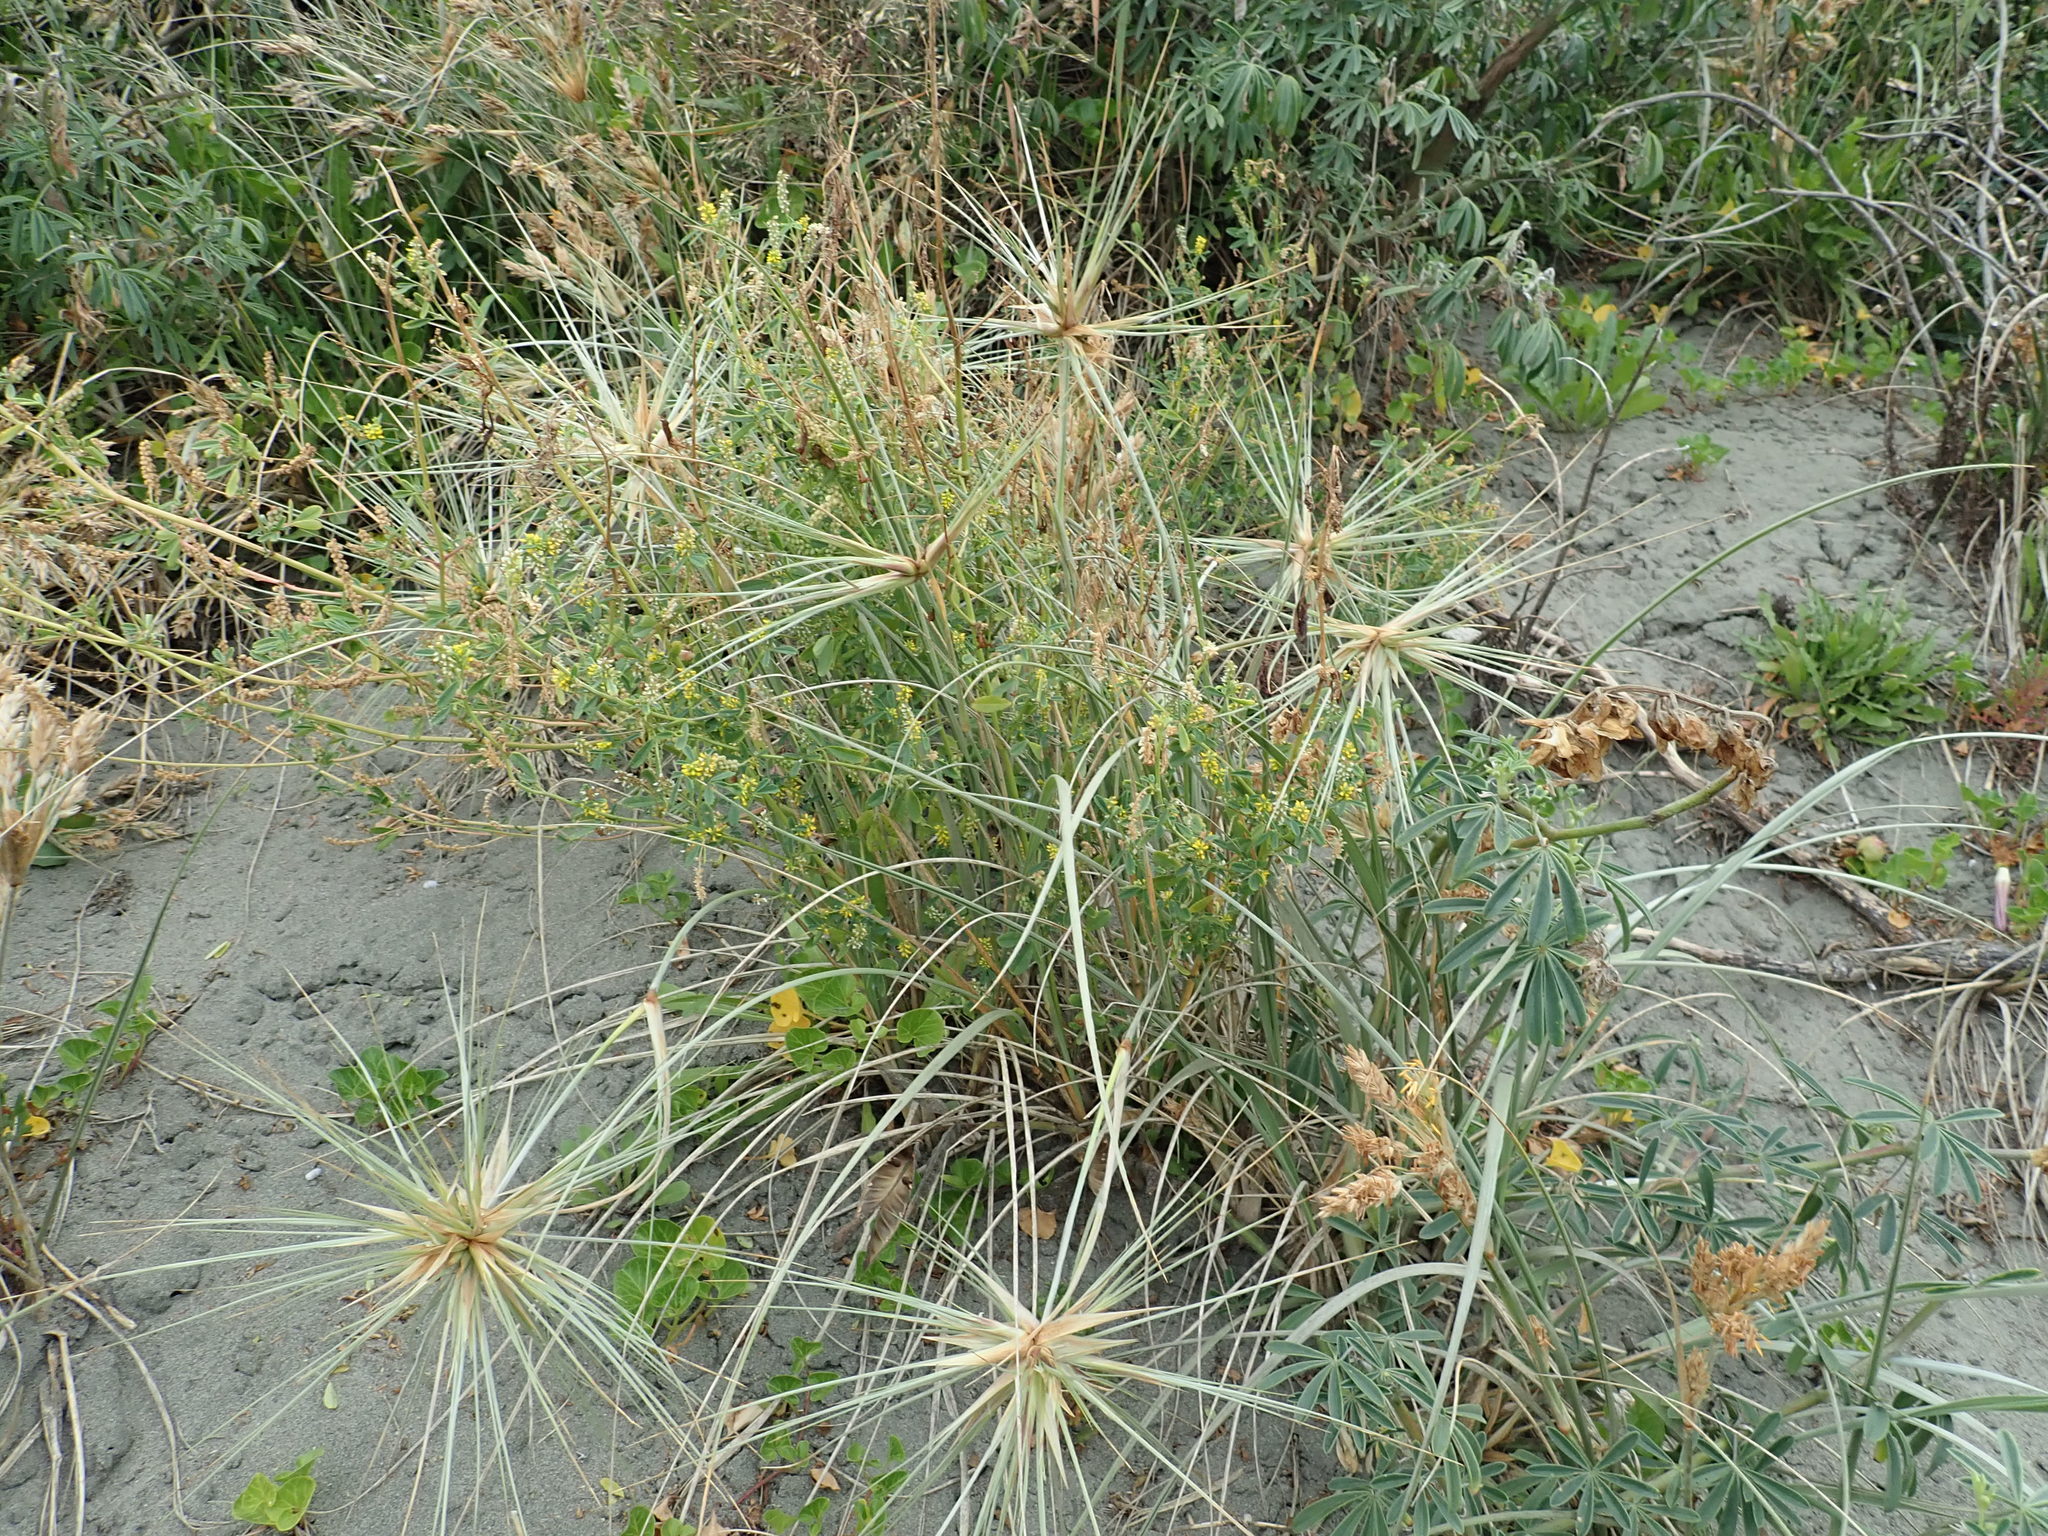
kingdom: Plantae
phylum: Tracheophyta
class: Magnoliopsida
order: Fabales
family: Fabaceae
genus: Melilotus
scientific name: Melilotus indicus
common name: Small melilot
